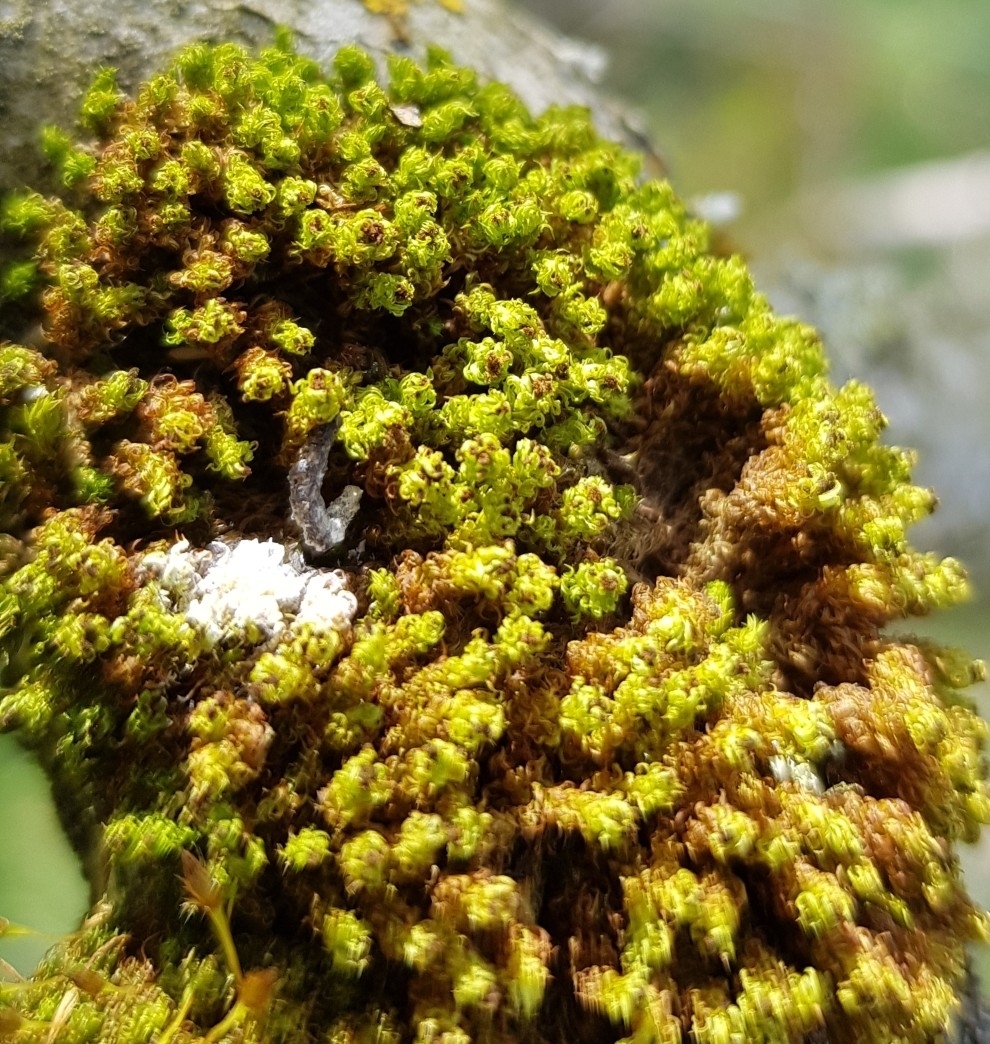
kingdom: Plantae
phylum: Bryophyta
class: Bryopsida
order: Orthotrichales
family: Orthotrichaceae
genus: Plenogemma
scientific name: Plenogemma phyllantha
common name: Frizzled pincushion
